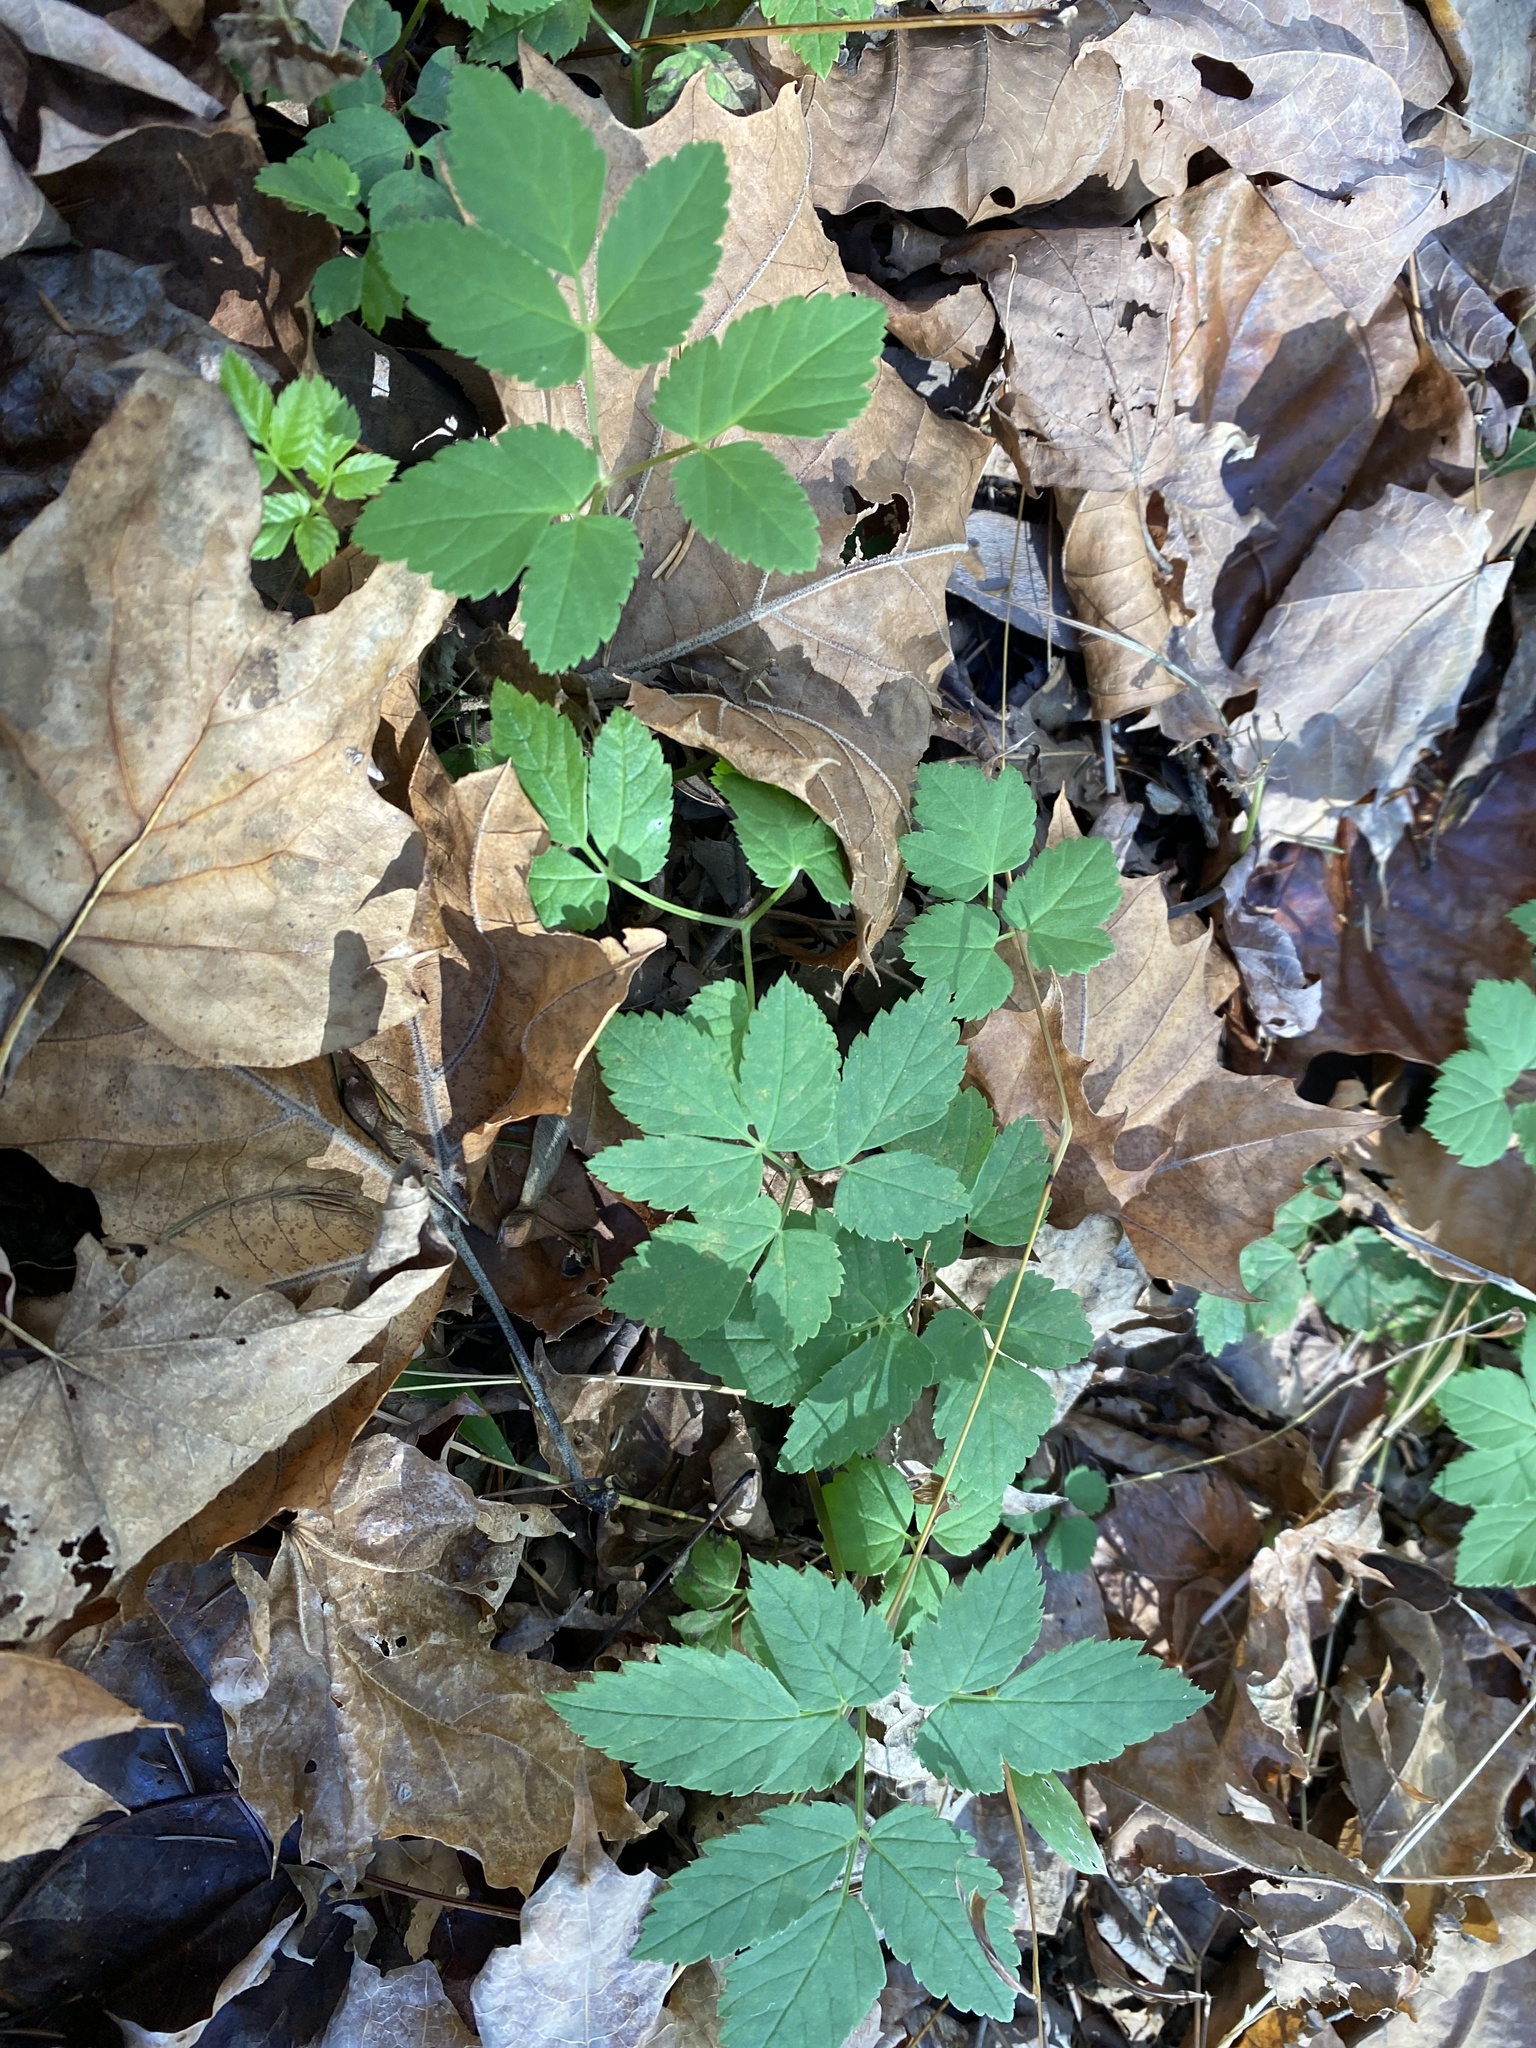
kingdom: Plantae
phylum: Tracheophyta
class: Magnoliopsida
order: Apiales
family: Apiaceae
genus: Aegopodium
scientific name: Aegopodium podagraria
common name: Ground-elder
